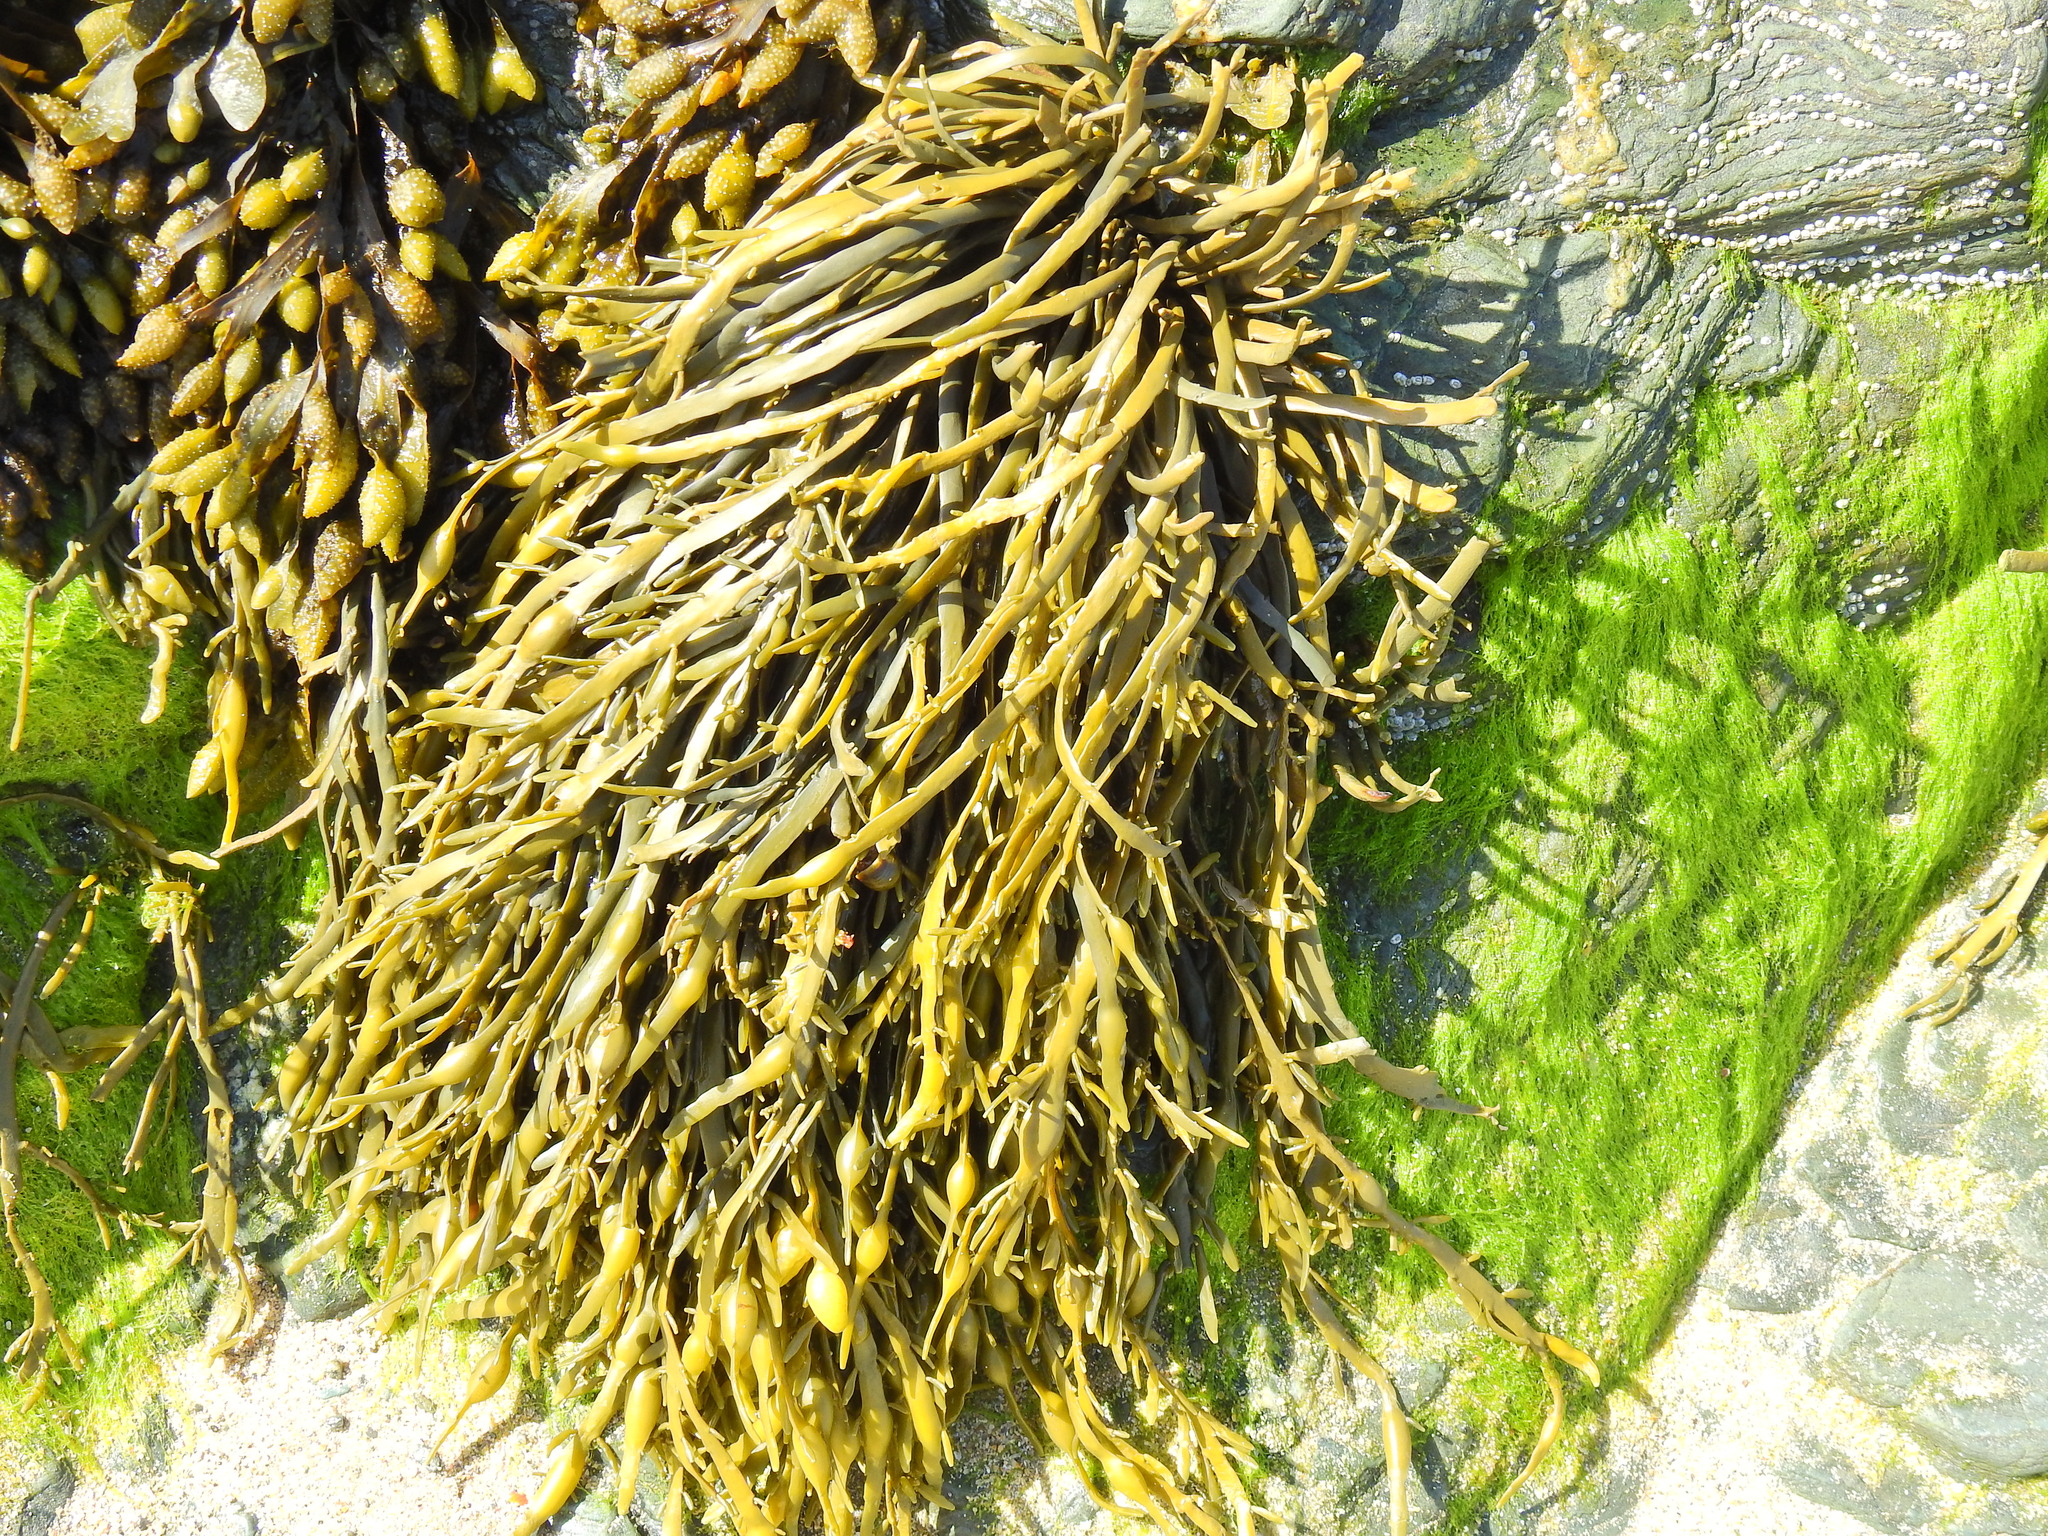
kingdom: Chromista
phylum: Ochrophyta
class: Phaeophyceae
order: Fucales
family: Fucaceae
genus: Ascophyllum
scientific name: Ascophyllum nodosum
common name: Knotted wrack
